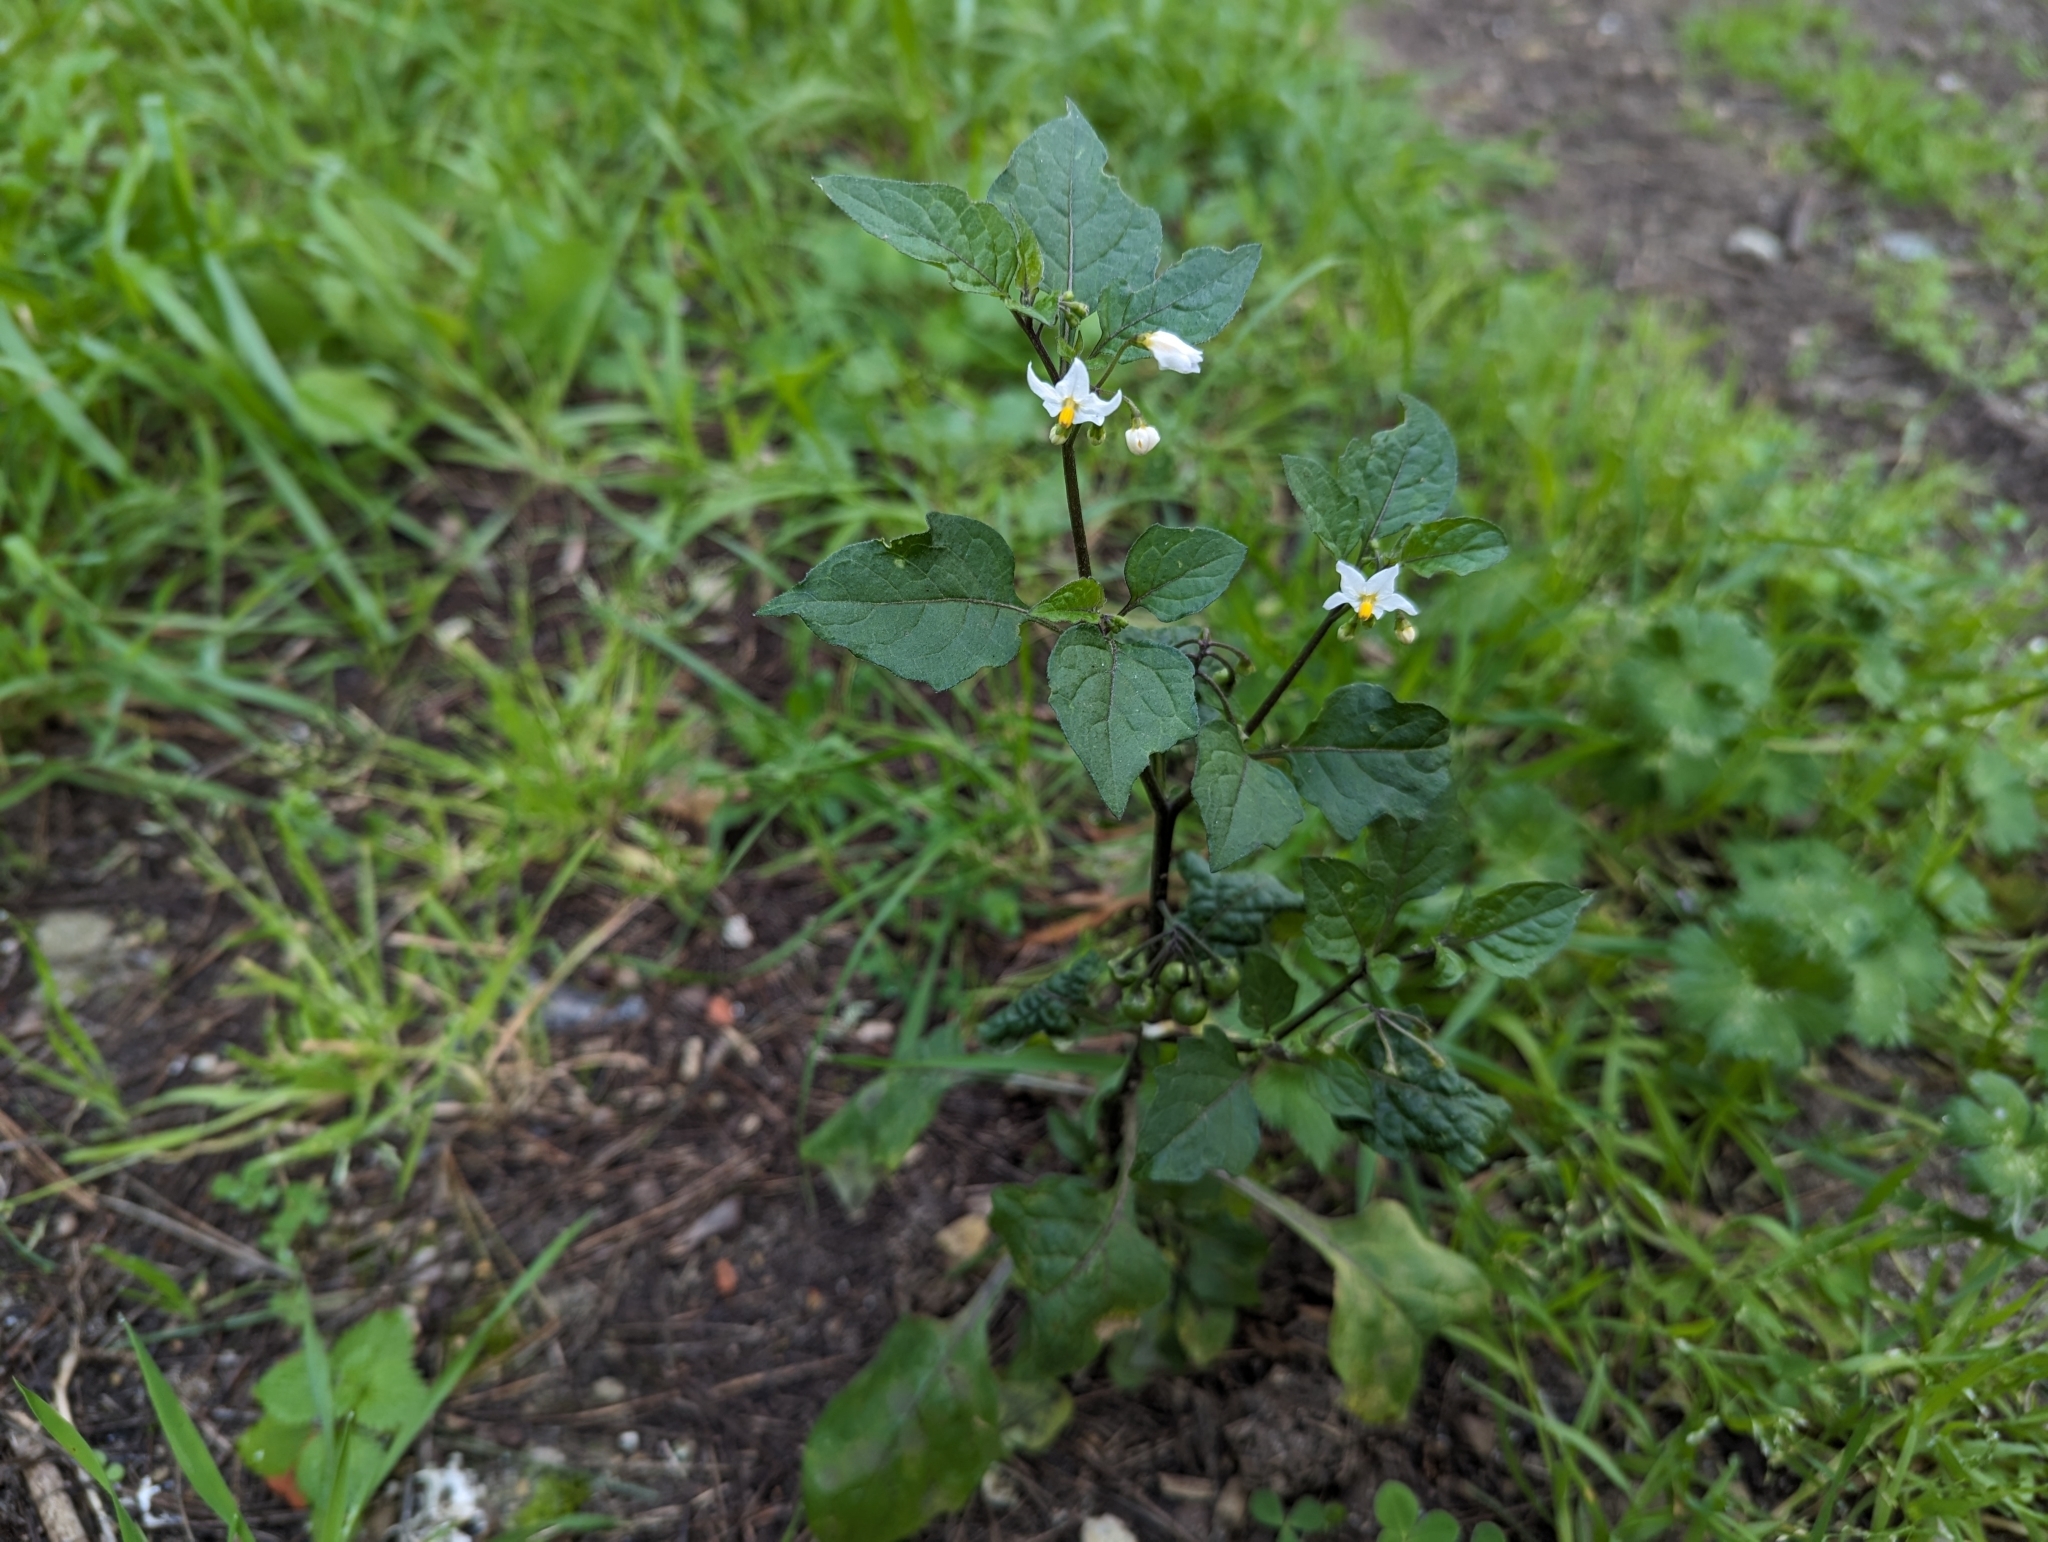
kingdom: Plantae
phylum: Tracheophyta
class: Magnoliopsida
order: Solanales
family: Solanaceae
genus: Solanum
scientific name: Solanum nigrum
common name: Black nightshade
